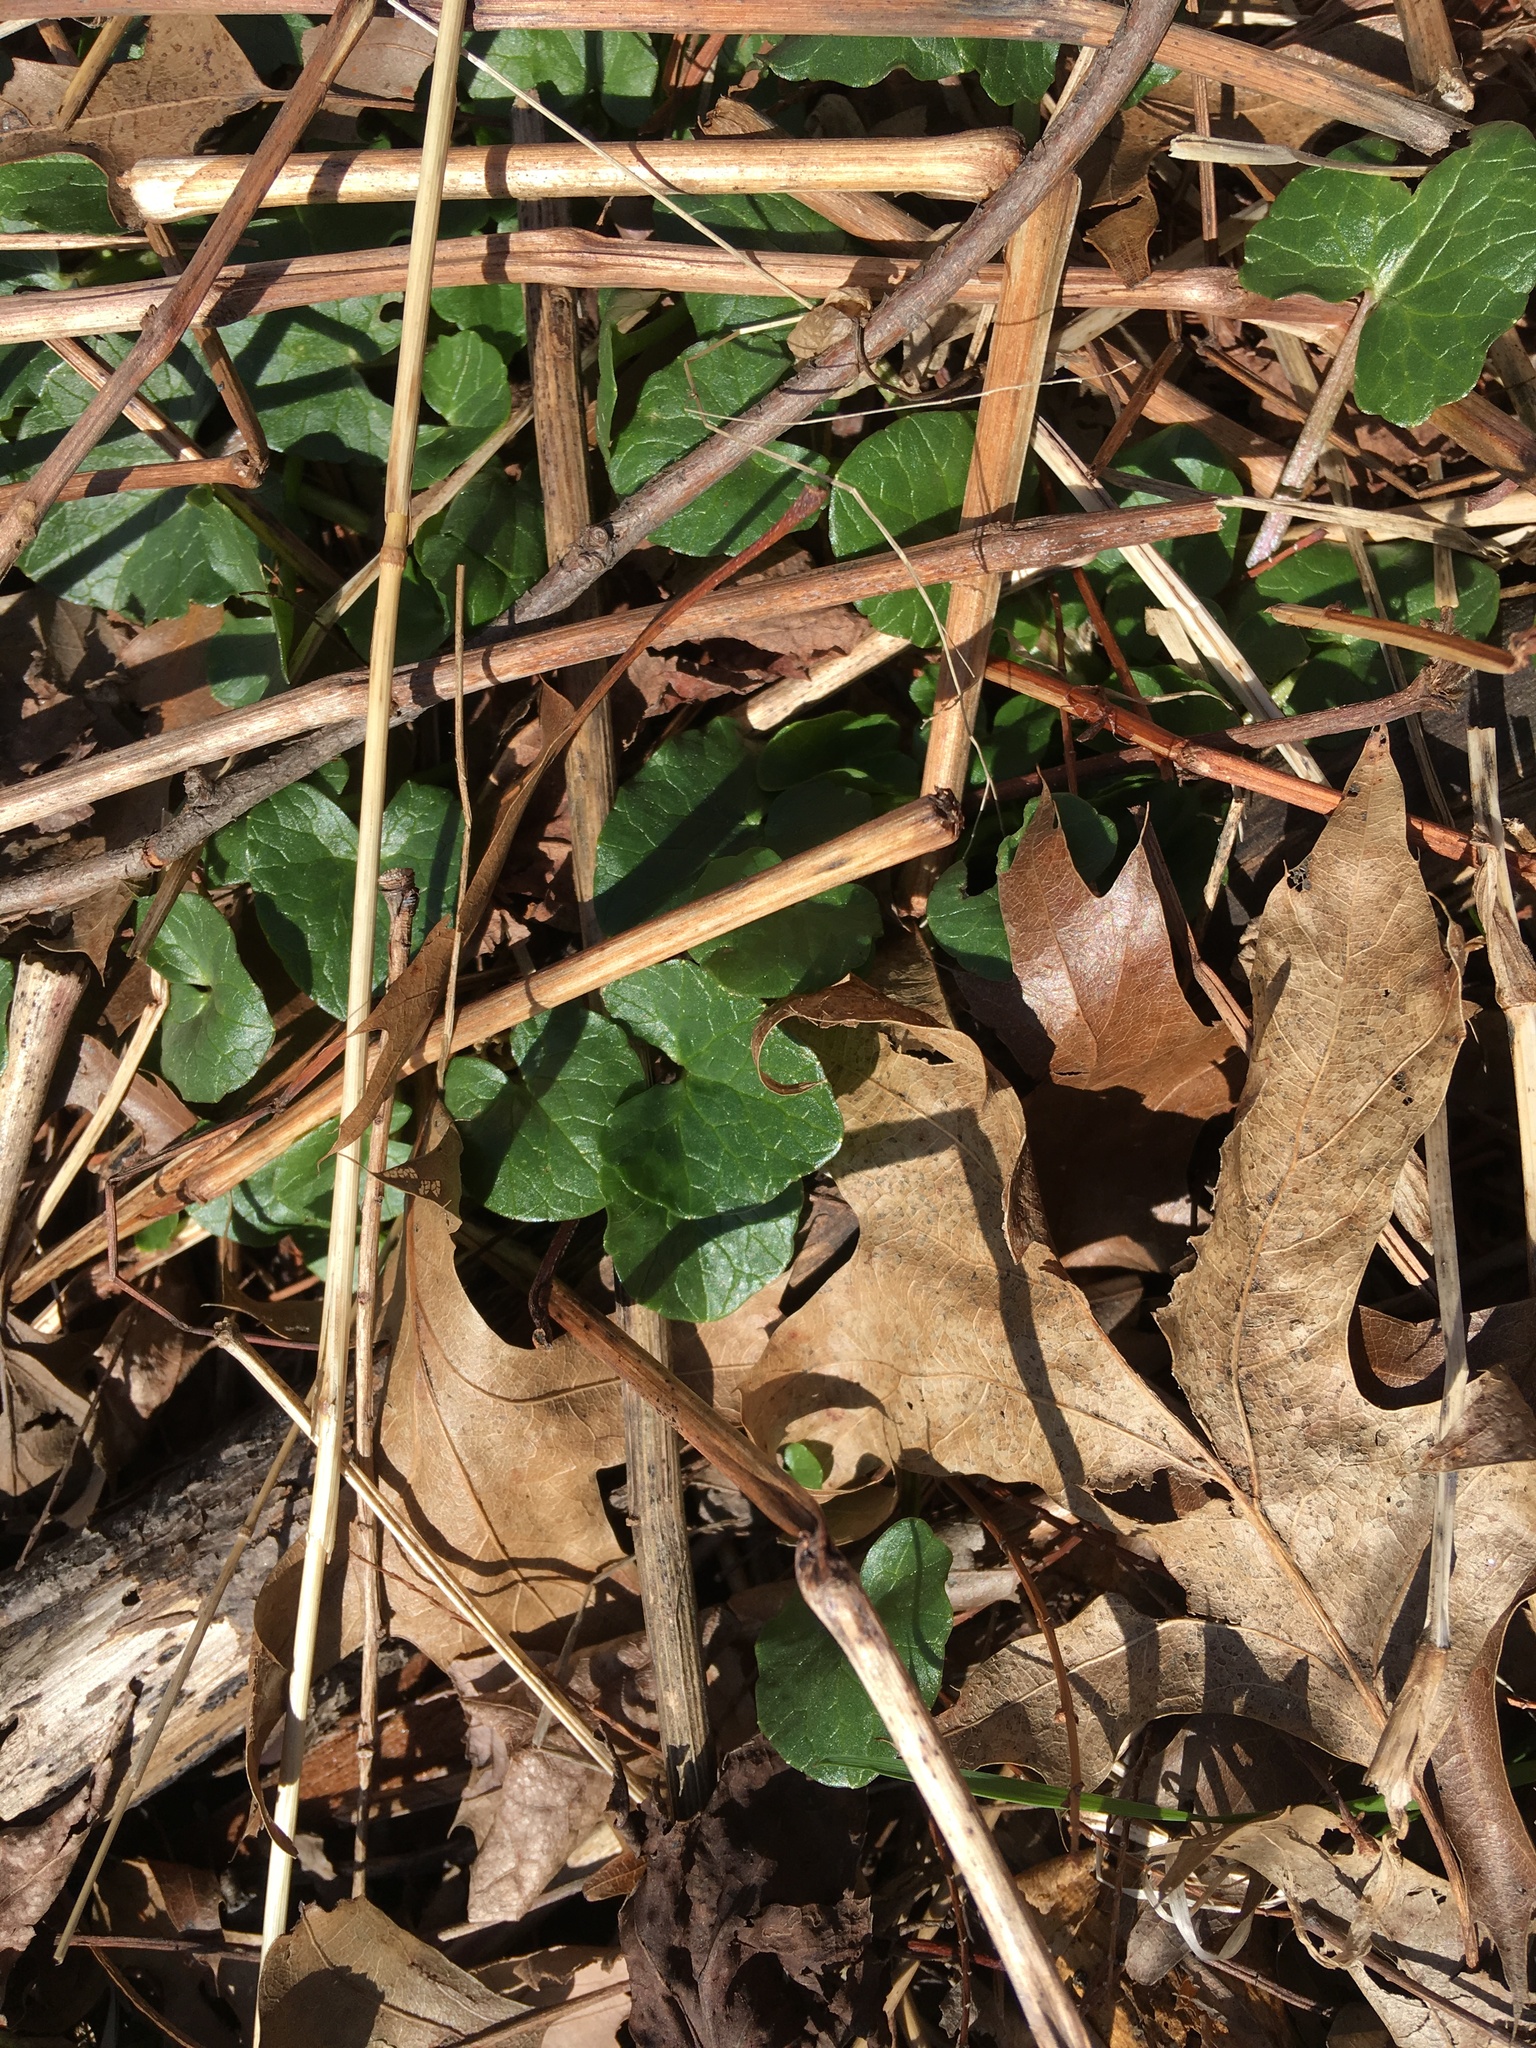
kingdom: Plantae
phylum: Tracheophyta
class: Magnoliopsida
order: Ranunculales
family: Ranunculaceae
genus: Ficaria
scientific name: Ficaria verna
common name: Lesser celandine
